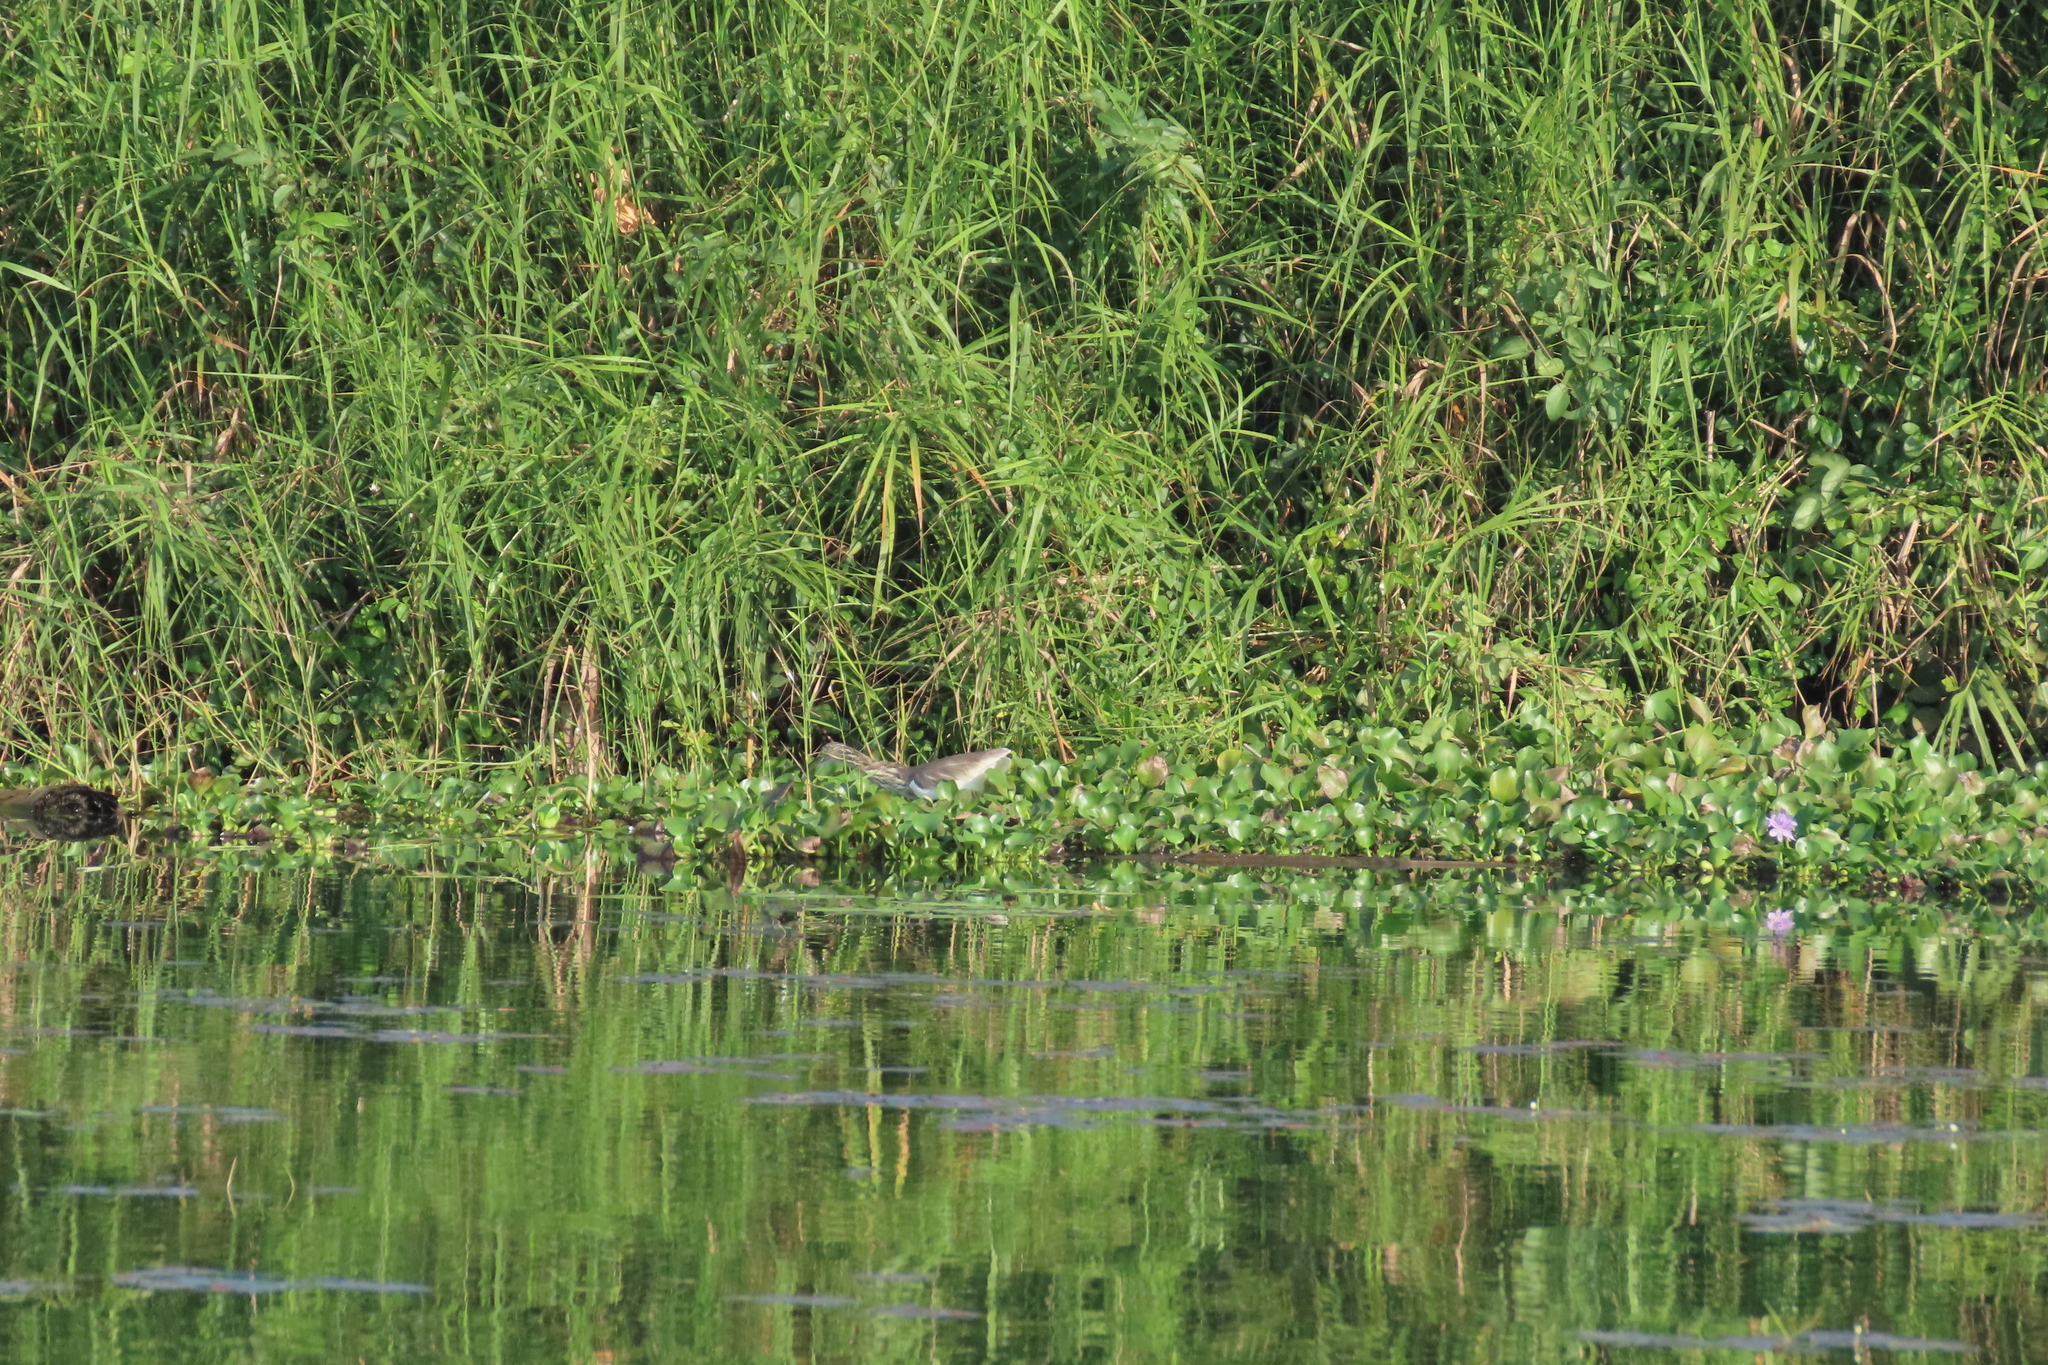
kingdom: Animalia
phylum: Chordata
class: Aves
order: Pelecaniformes
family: Ardeidae
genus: Ardeola
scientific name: Ardeola grayii
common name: Indian pond heron
